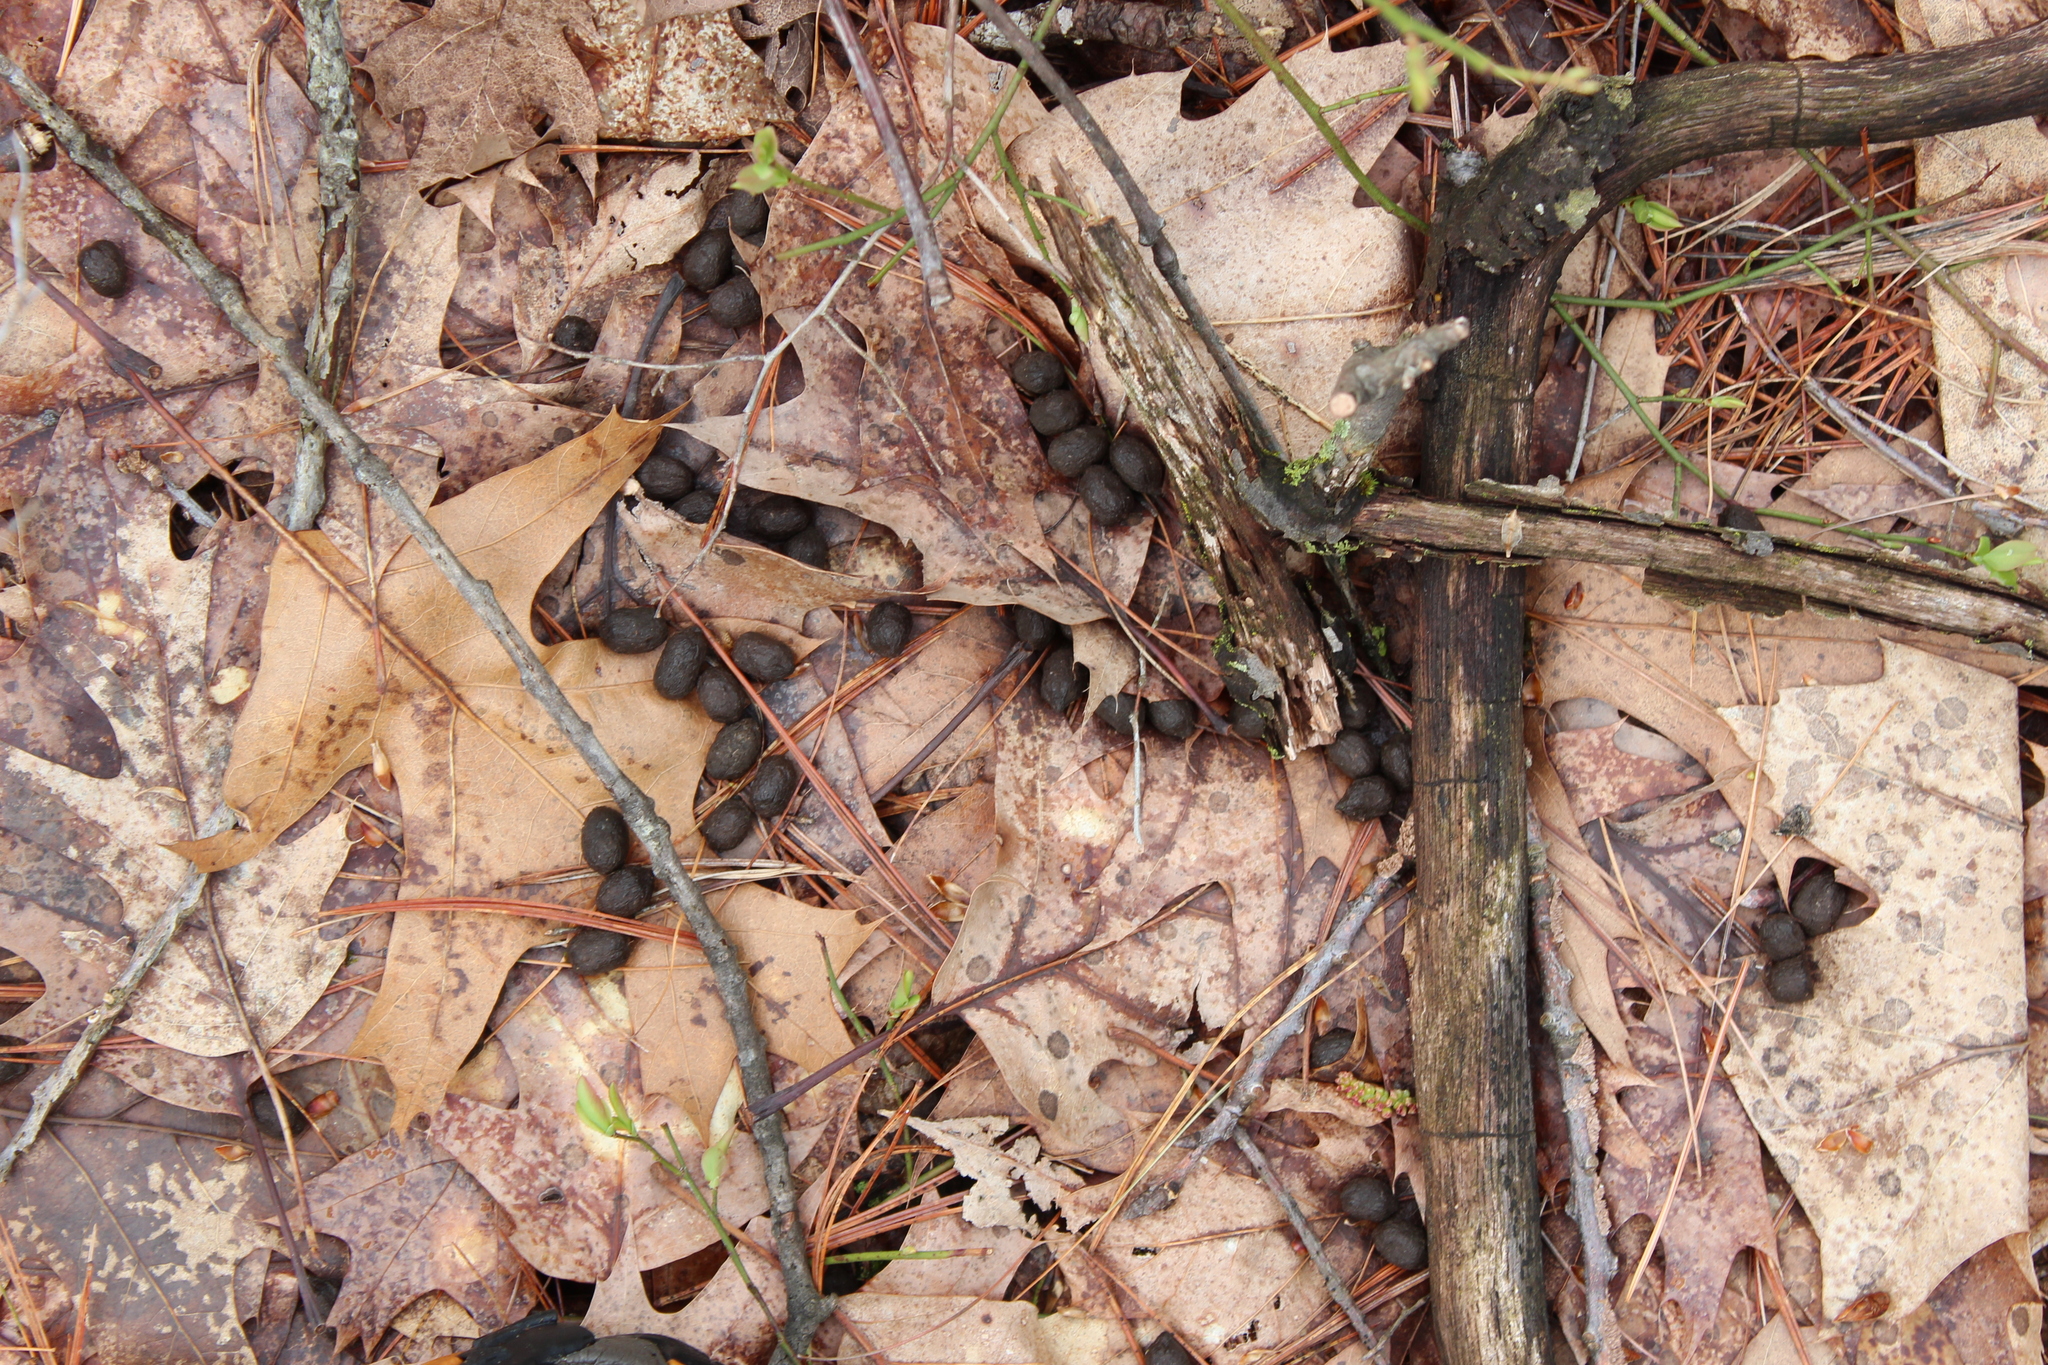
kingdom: Animalia
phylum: Chordata
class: Mammalia
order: Artiodactyla
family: Cervidae
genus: Odocoileus
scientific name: Odocoileus virginianus
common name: White-tailed deer
